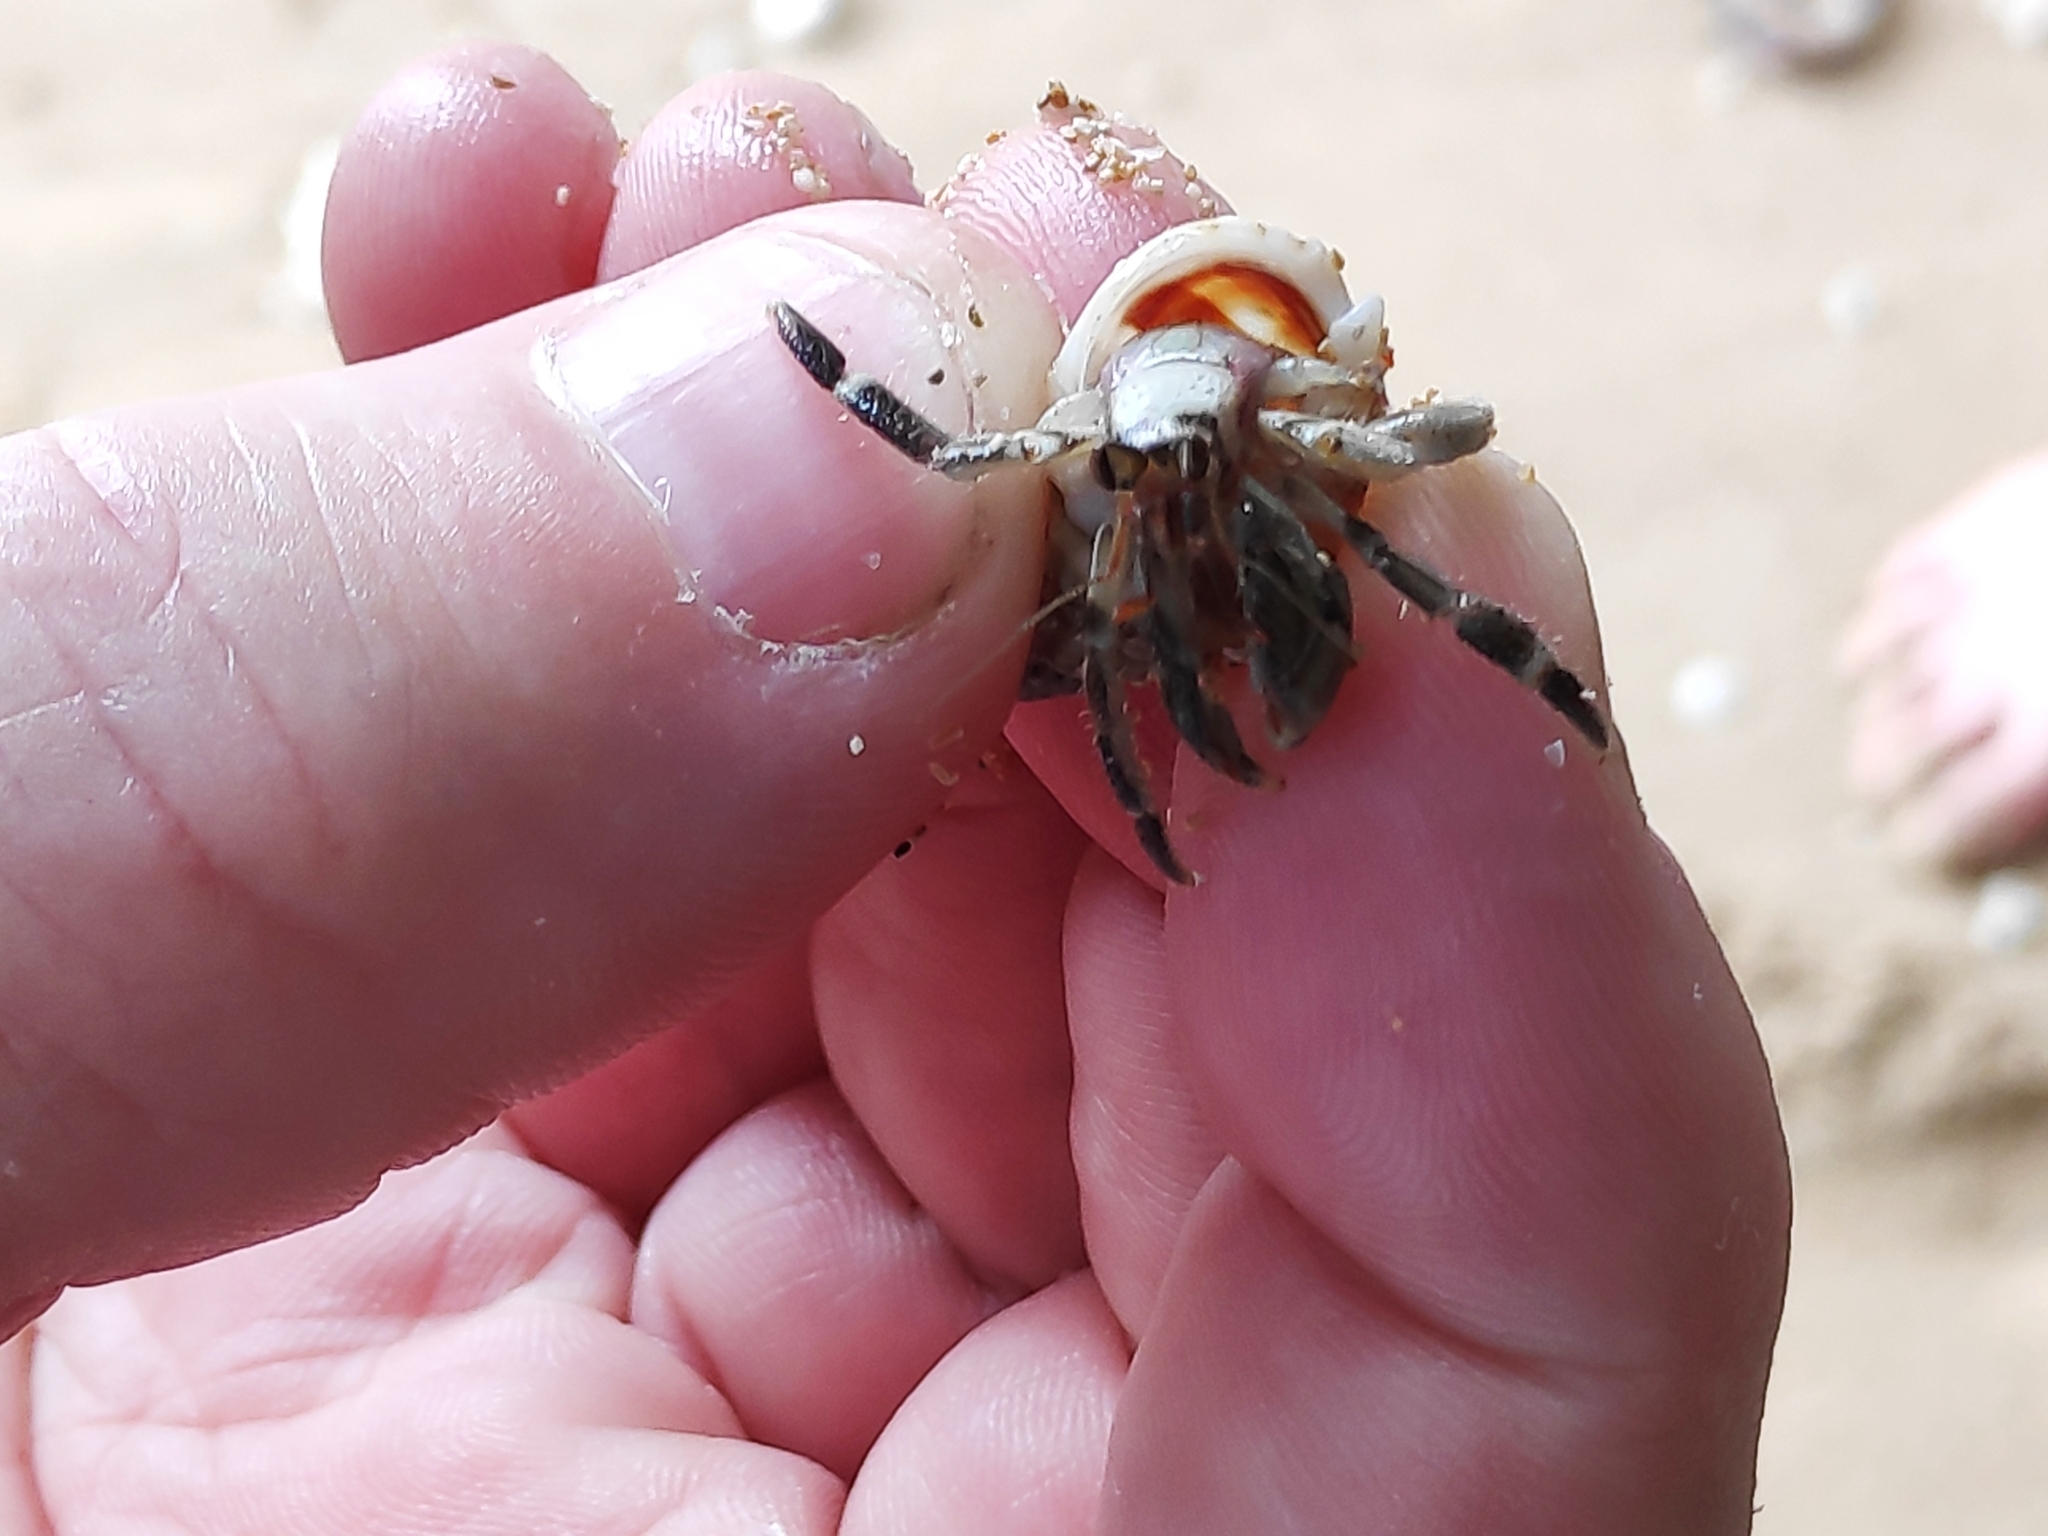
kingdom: Animalia
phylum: Arthropoda
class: Malacostraca
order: Decapoda
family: Coenobitidae
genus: Coenobita
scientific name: Coenobita rugosus
